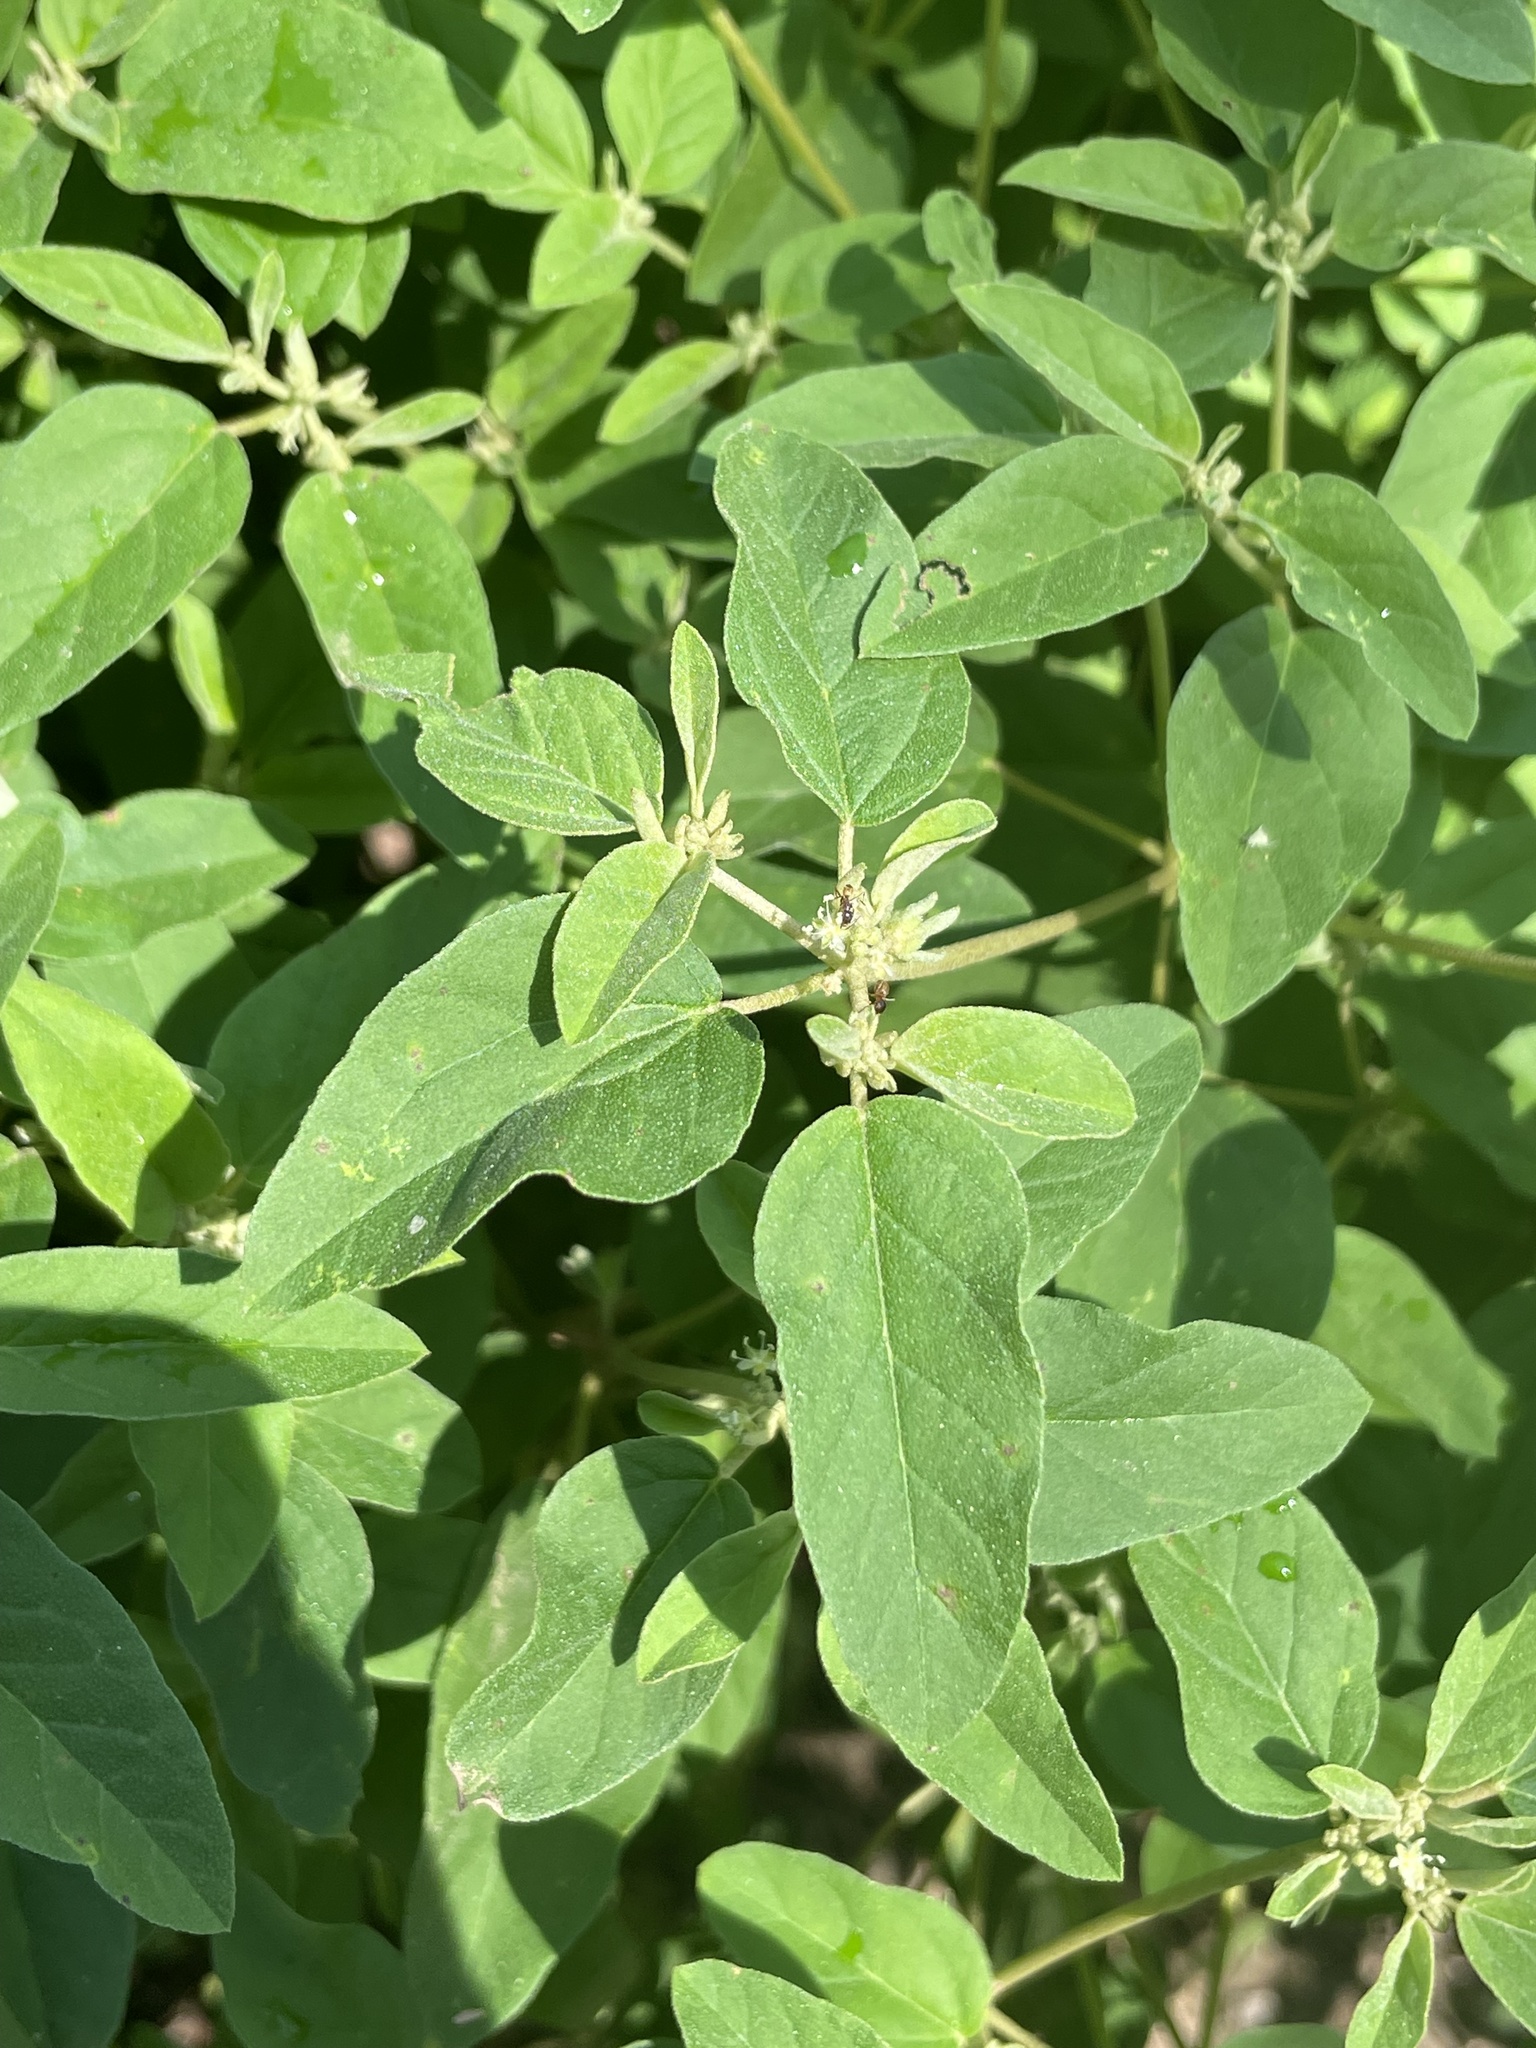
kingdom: Plantae
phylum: Tracheophyta
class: Magnoliopsida
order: Malpighiales
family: Euphorbiaceae
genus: Croton
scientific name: Croton monanthogynus
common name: One-seed croton
